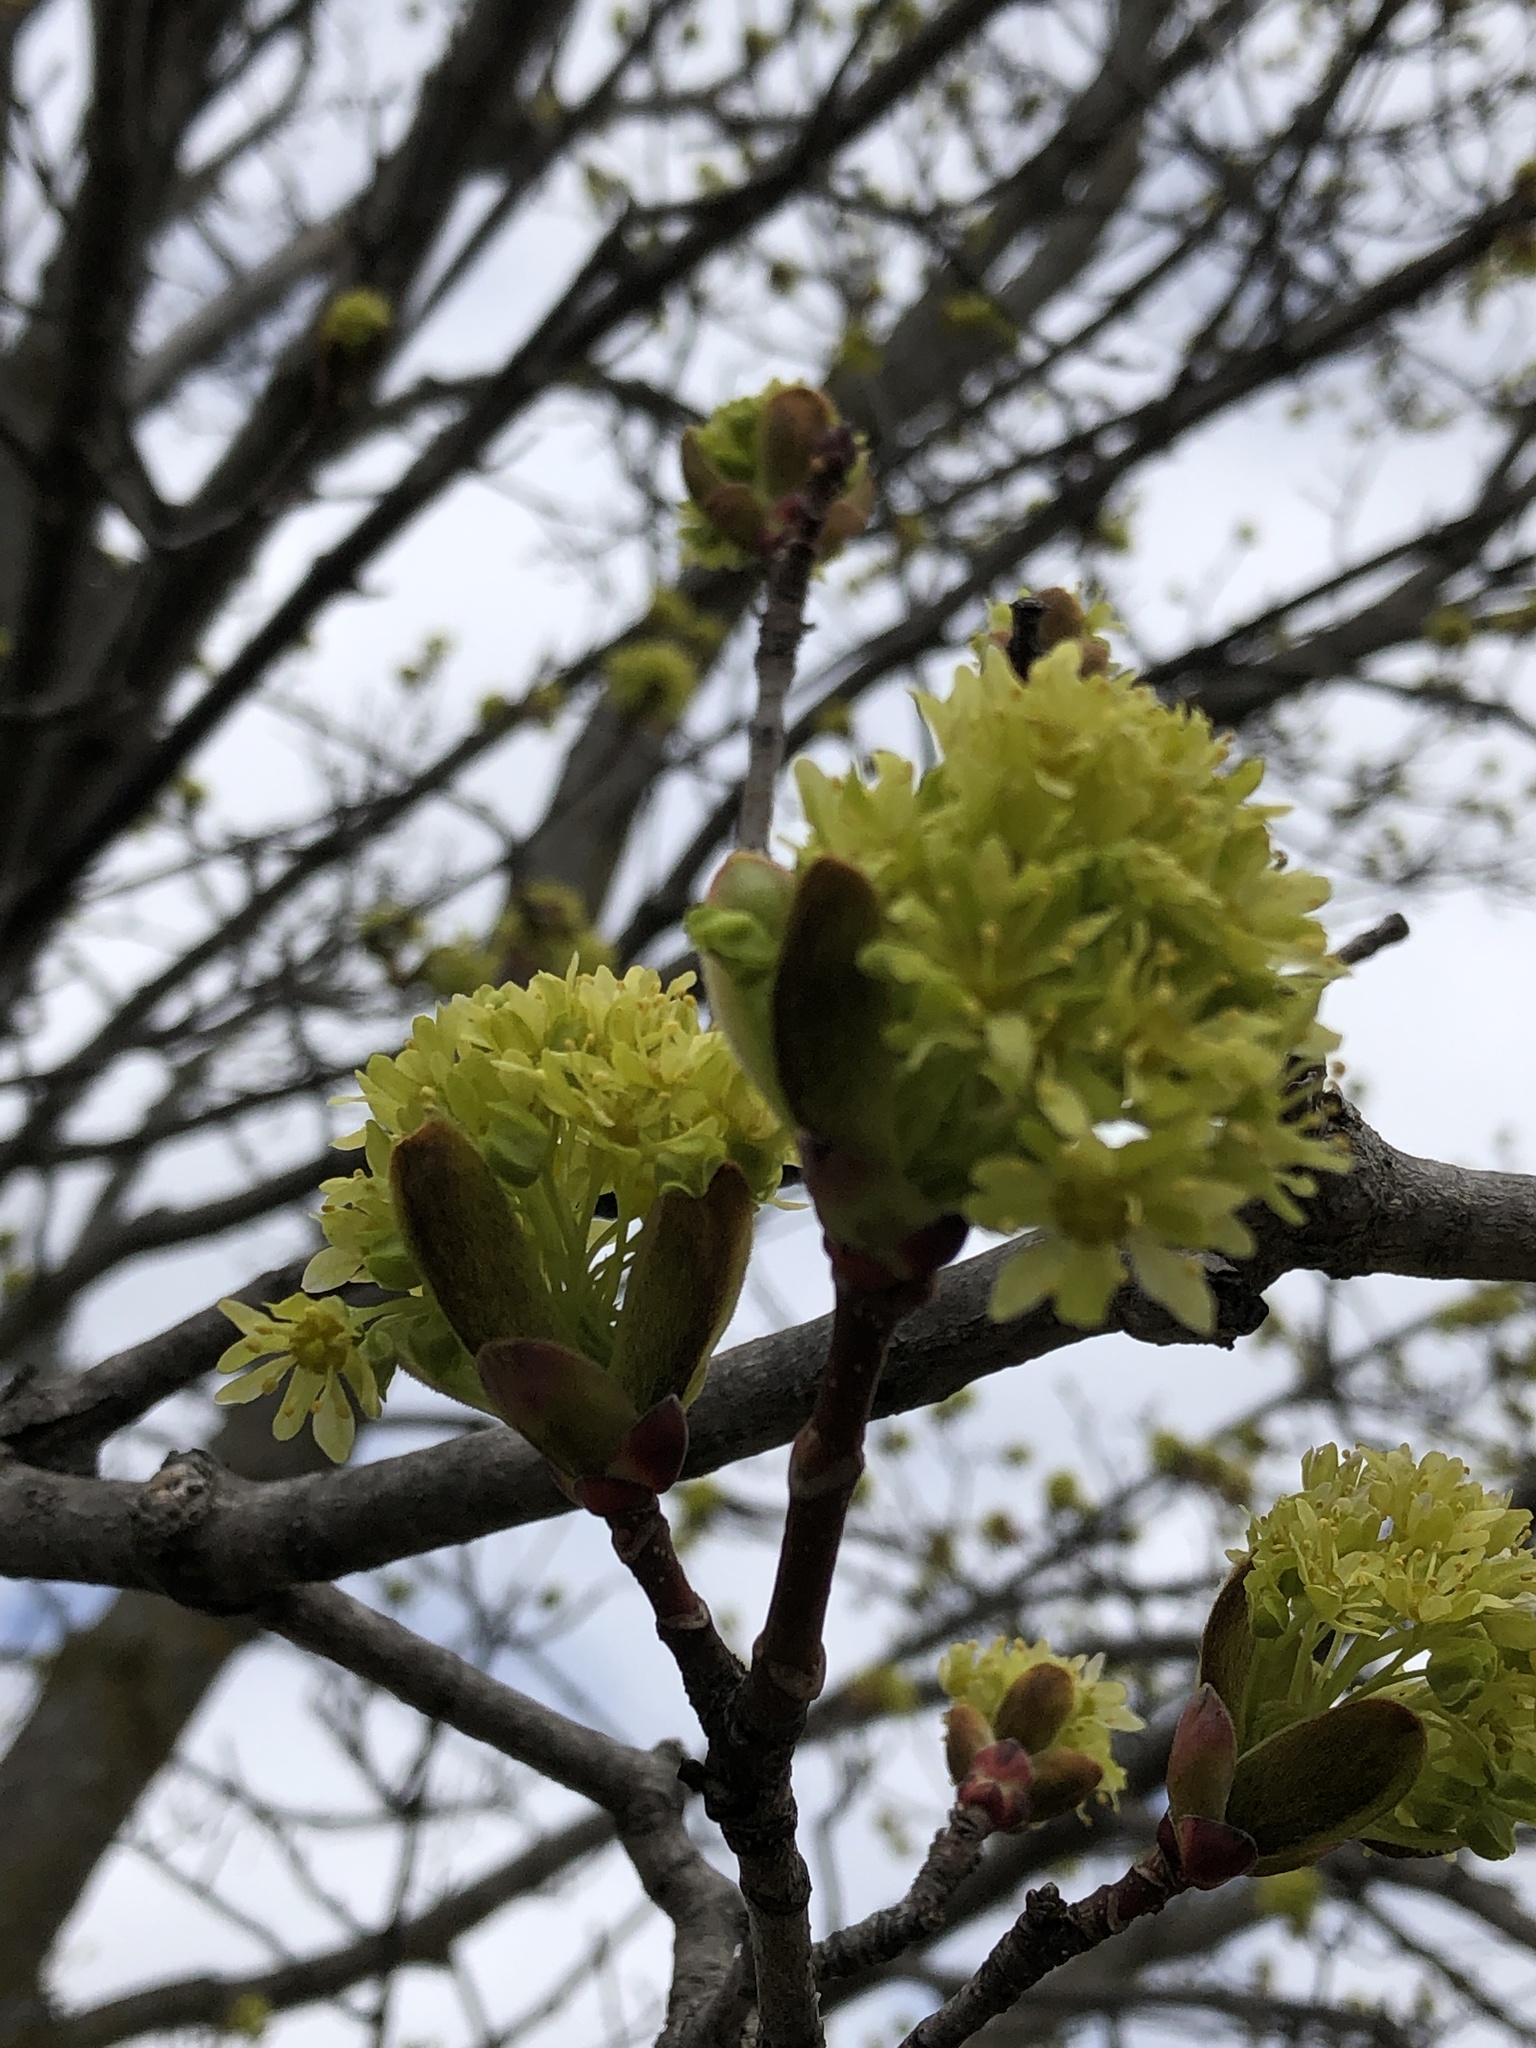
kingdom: Plantae
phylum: Tracheophyta
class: Magnoliopsida
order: Sapindales
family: Sapindaceae
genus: Acer
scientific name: Acer platanoides
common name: Norway maple
